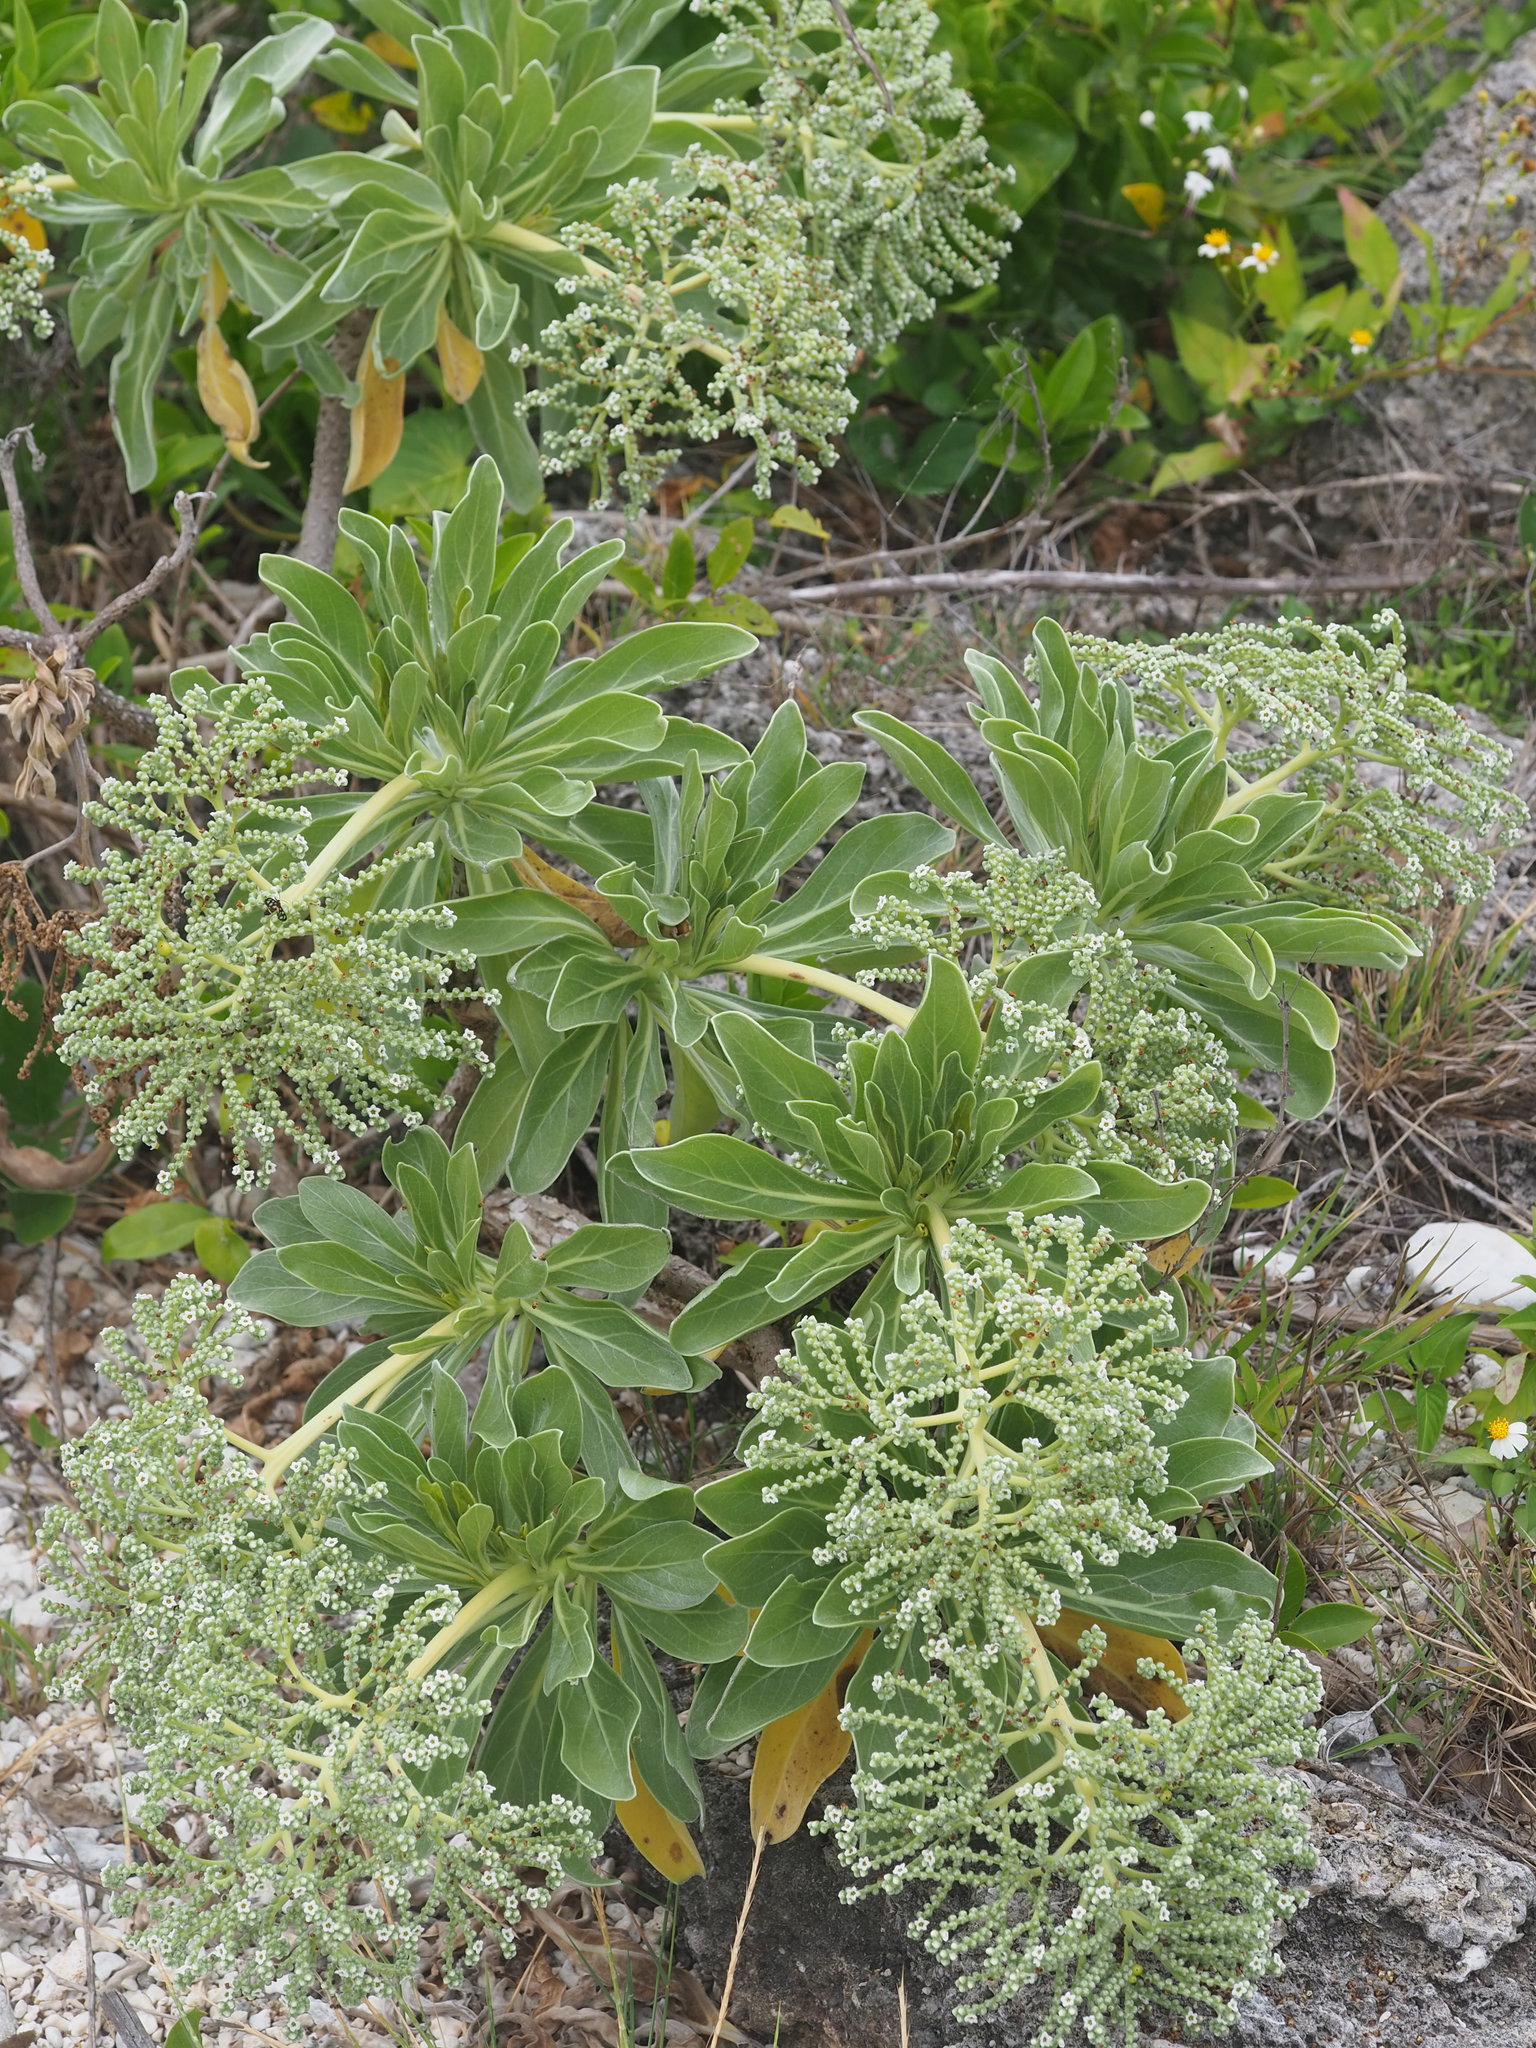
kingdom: Plantae
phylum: Tracheophyta
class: Magnoliopsida
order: Boraginales
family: Heliotropiaceae
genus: Heliotropium
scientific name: Heliotropium velutinum
